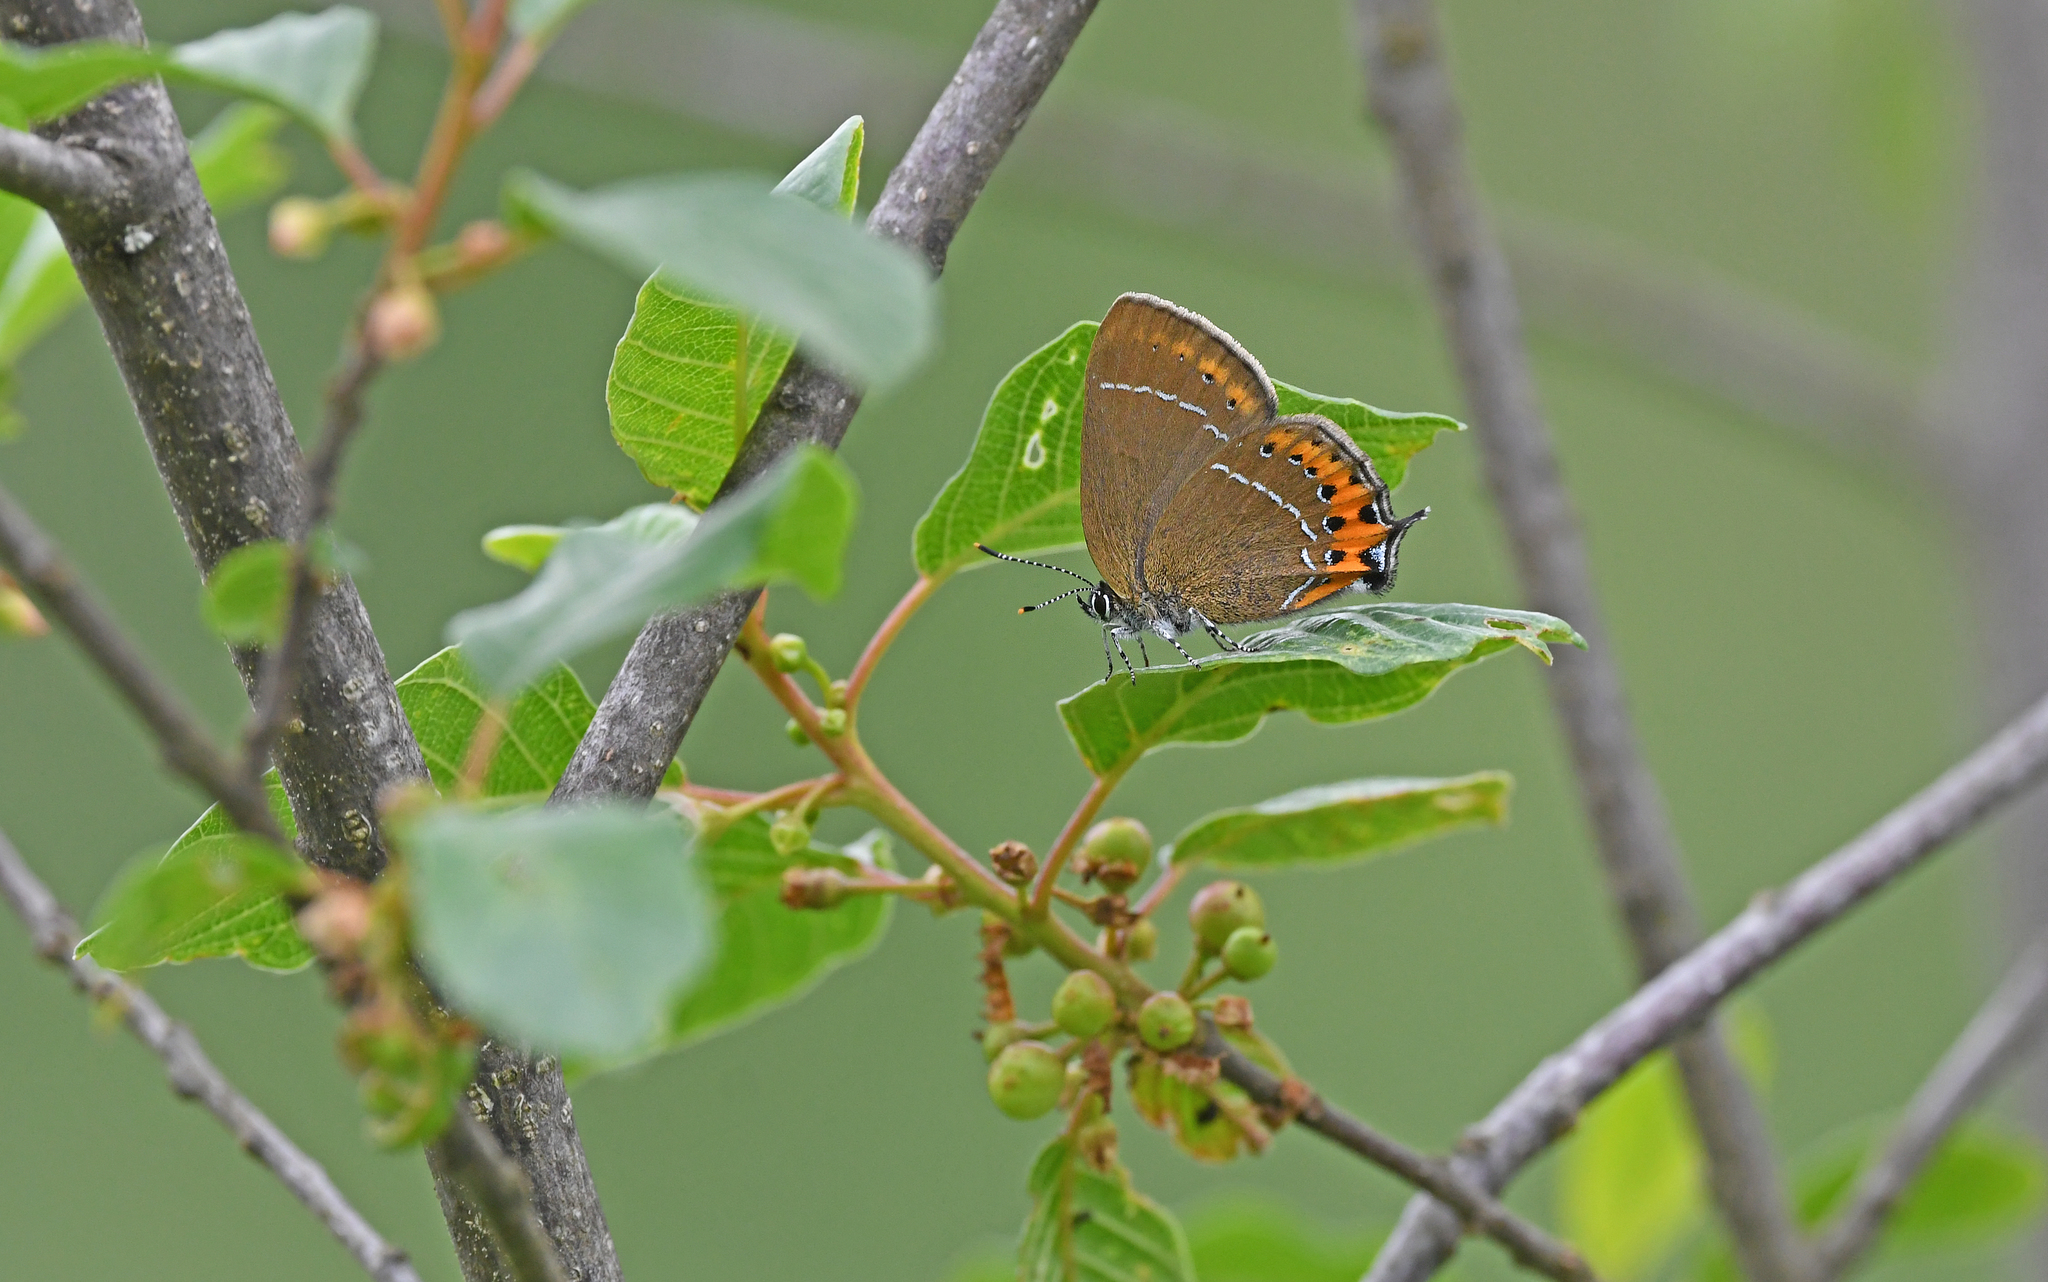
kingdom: Animalia
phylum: Arthropoda
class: Insecta
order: Lepidoptera
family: Lycaenidae
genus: Fixsenia
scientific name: Fixsenia pruni
